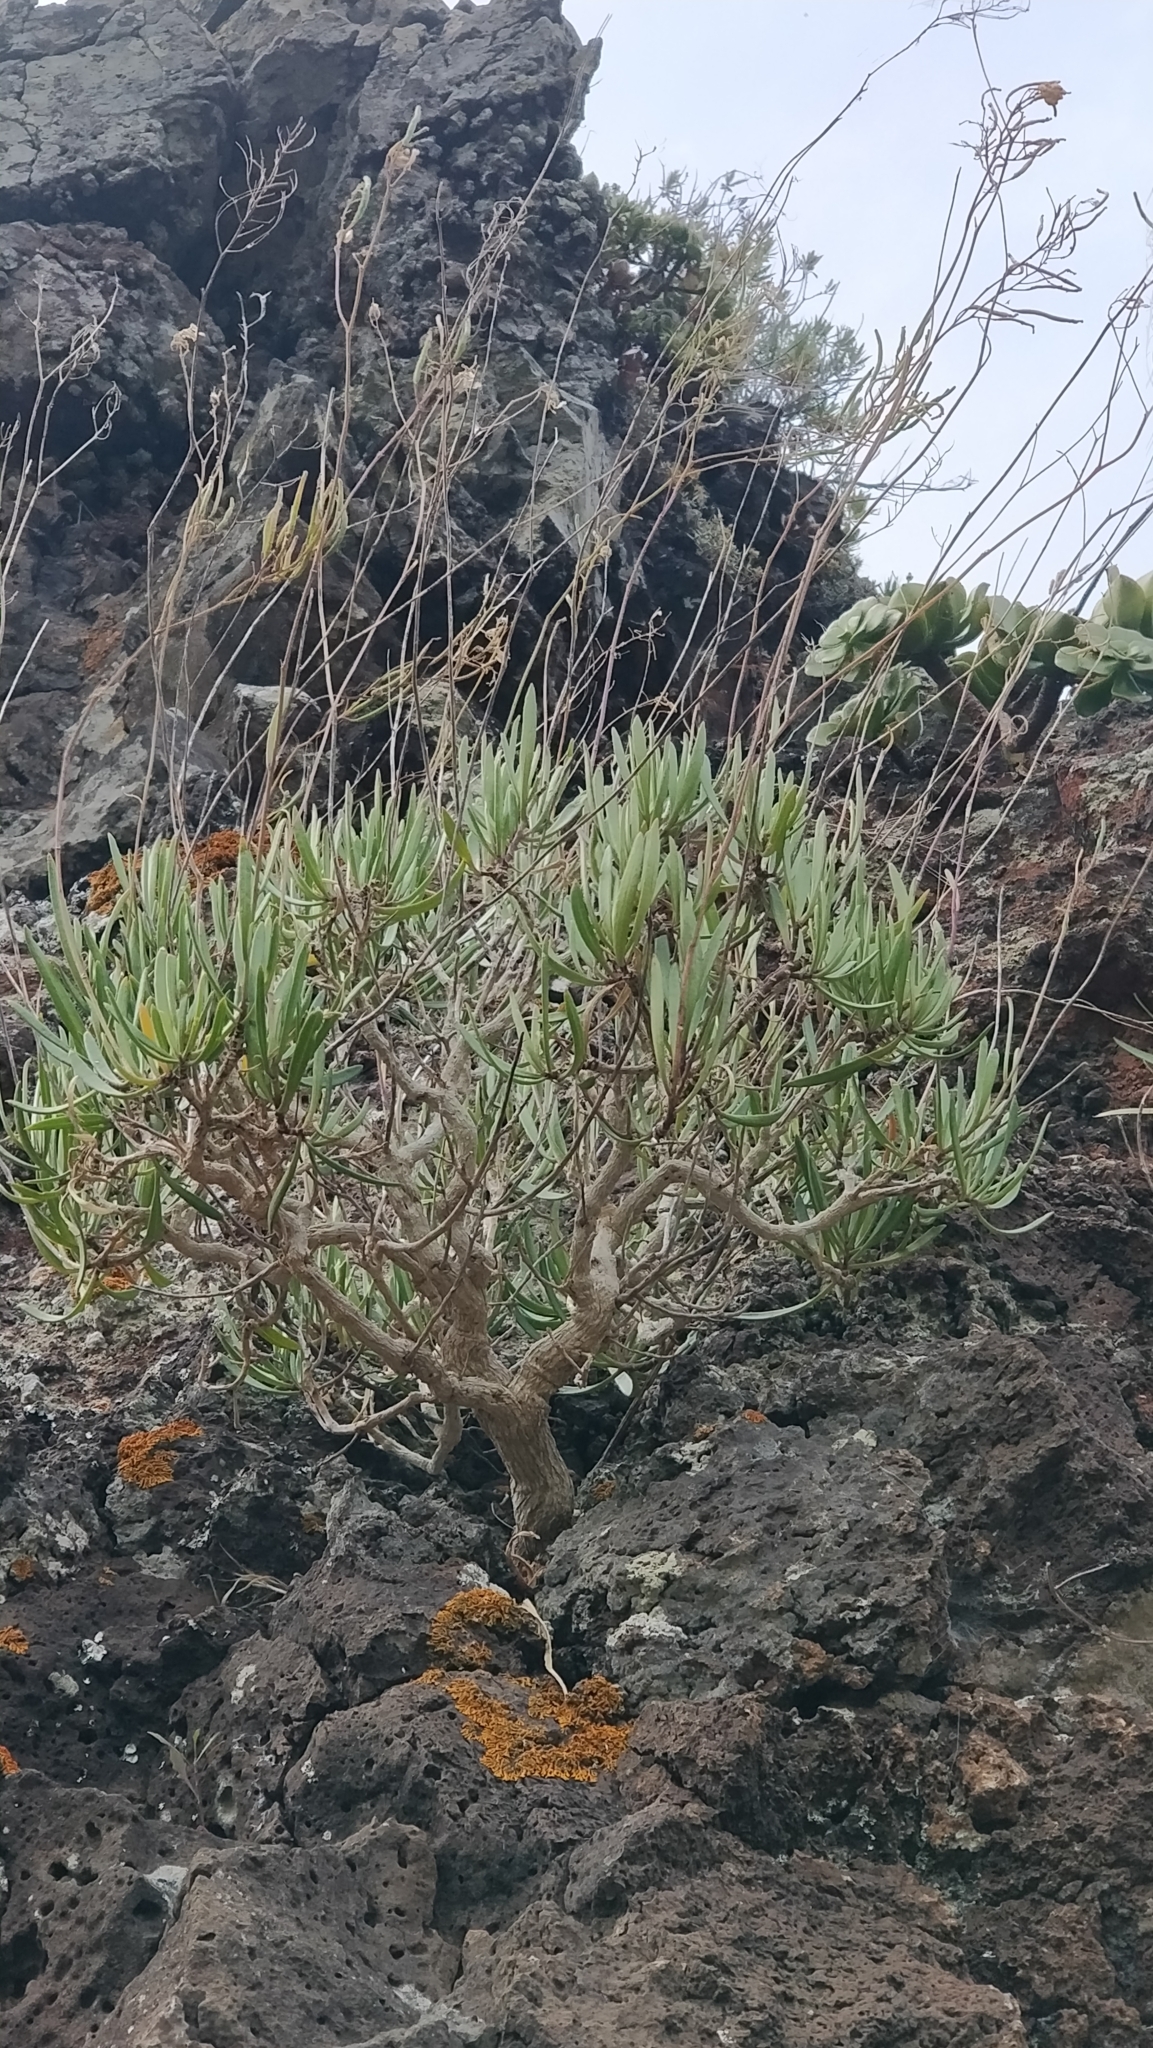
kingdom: Plantae
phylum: Tracheophyta
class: Magnoliopsida
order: Brassicales
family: Brassicaceae
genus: Sinapidendron
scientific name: Sinapidendron angustifolium
